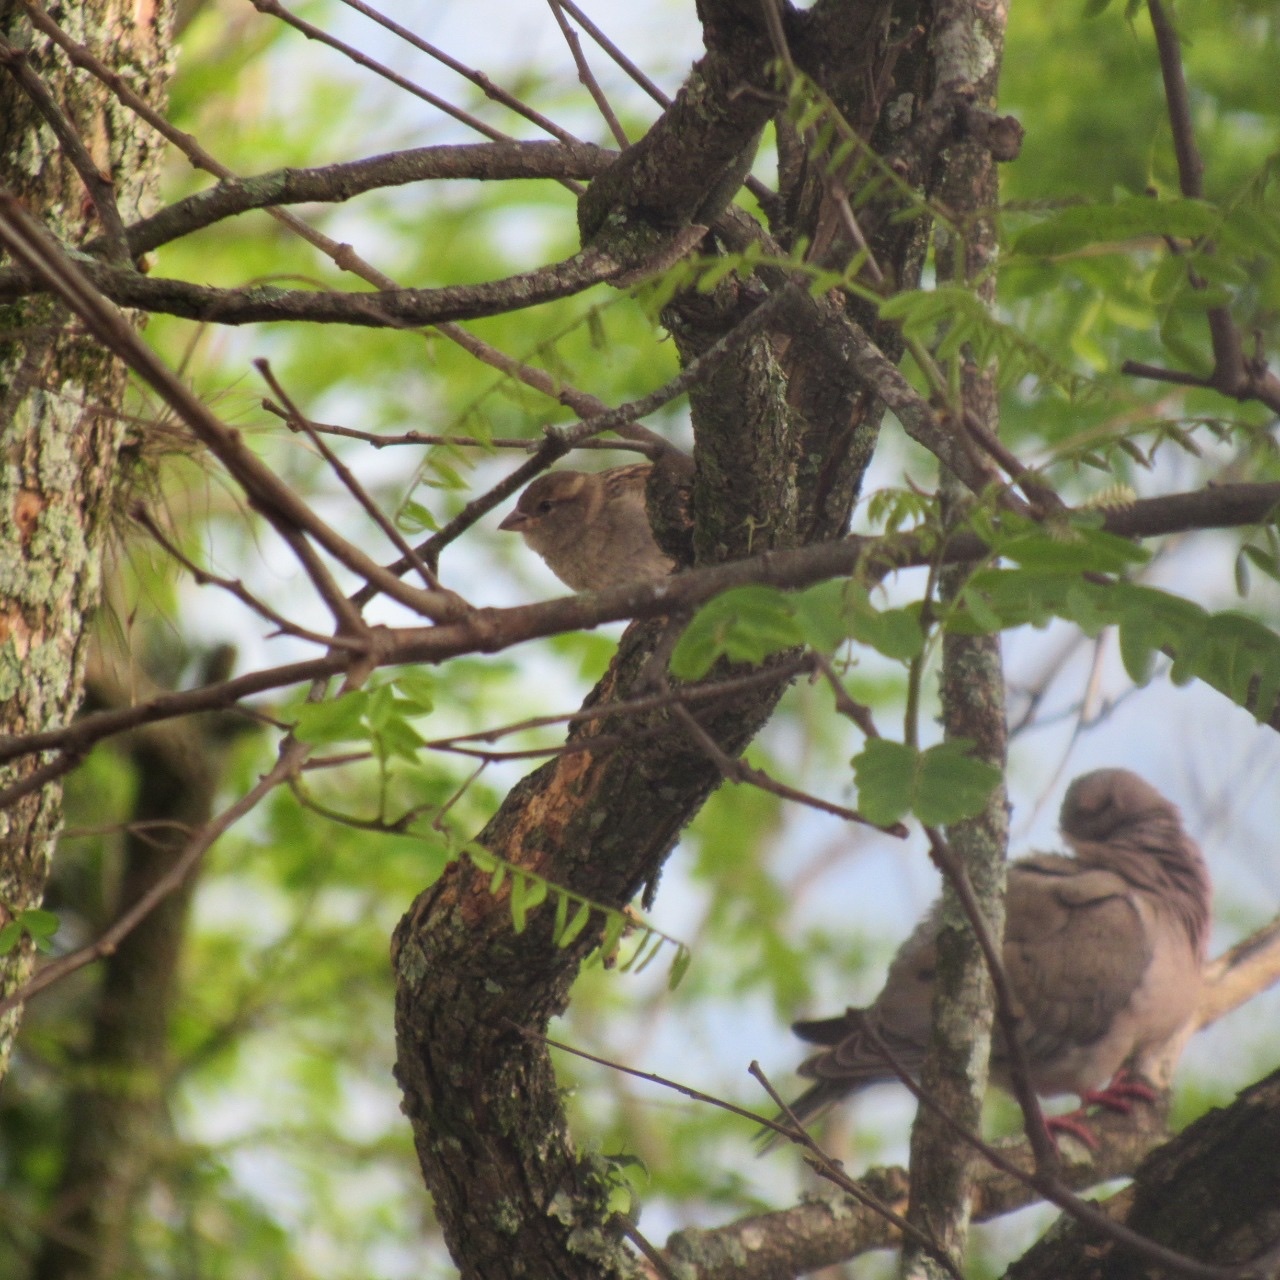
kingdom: Animalia
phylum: Chordata
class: Aves
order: Passeriformes
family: Passeridae
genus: Passer
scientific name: Passer domesticus
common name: House sparrow
